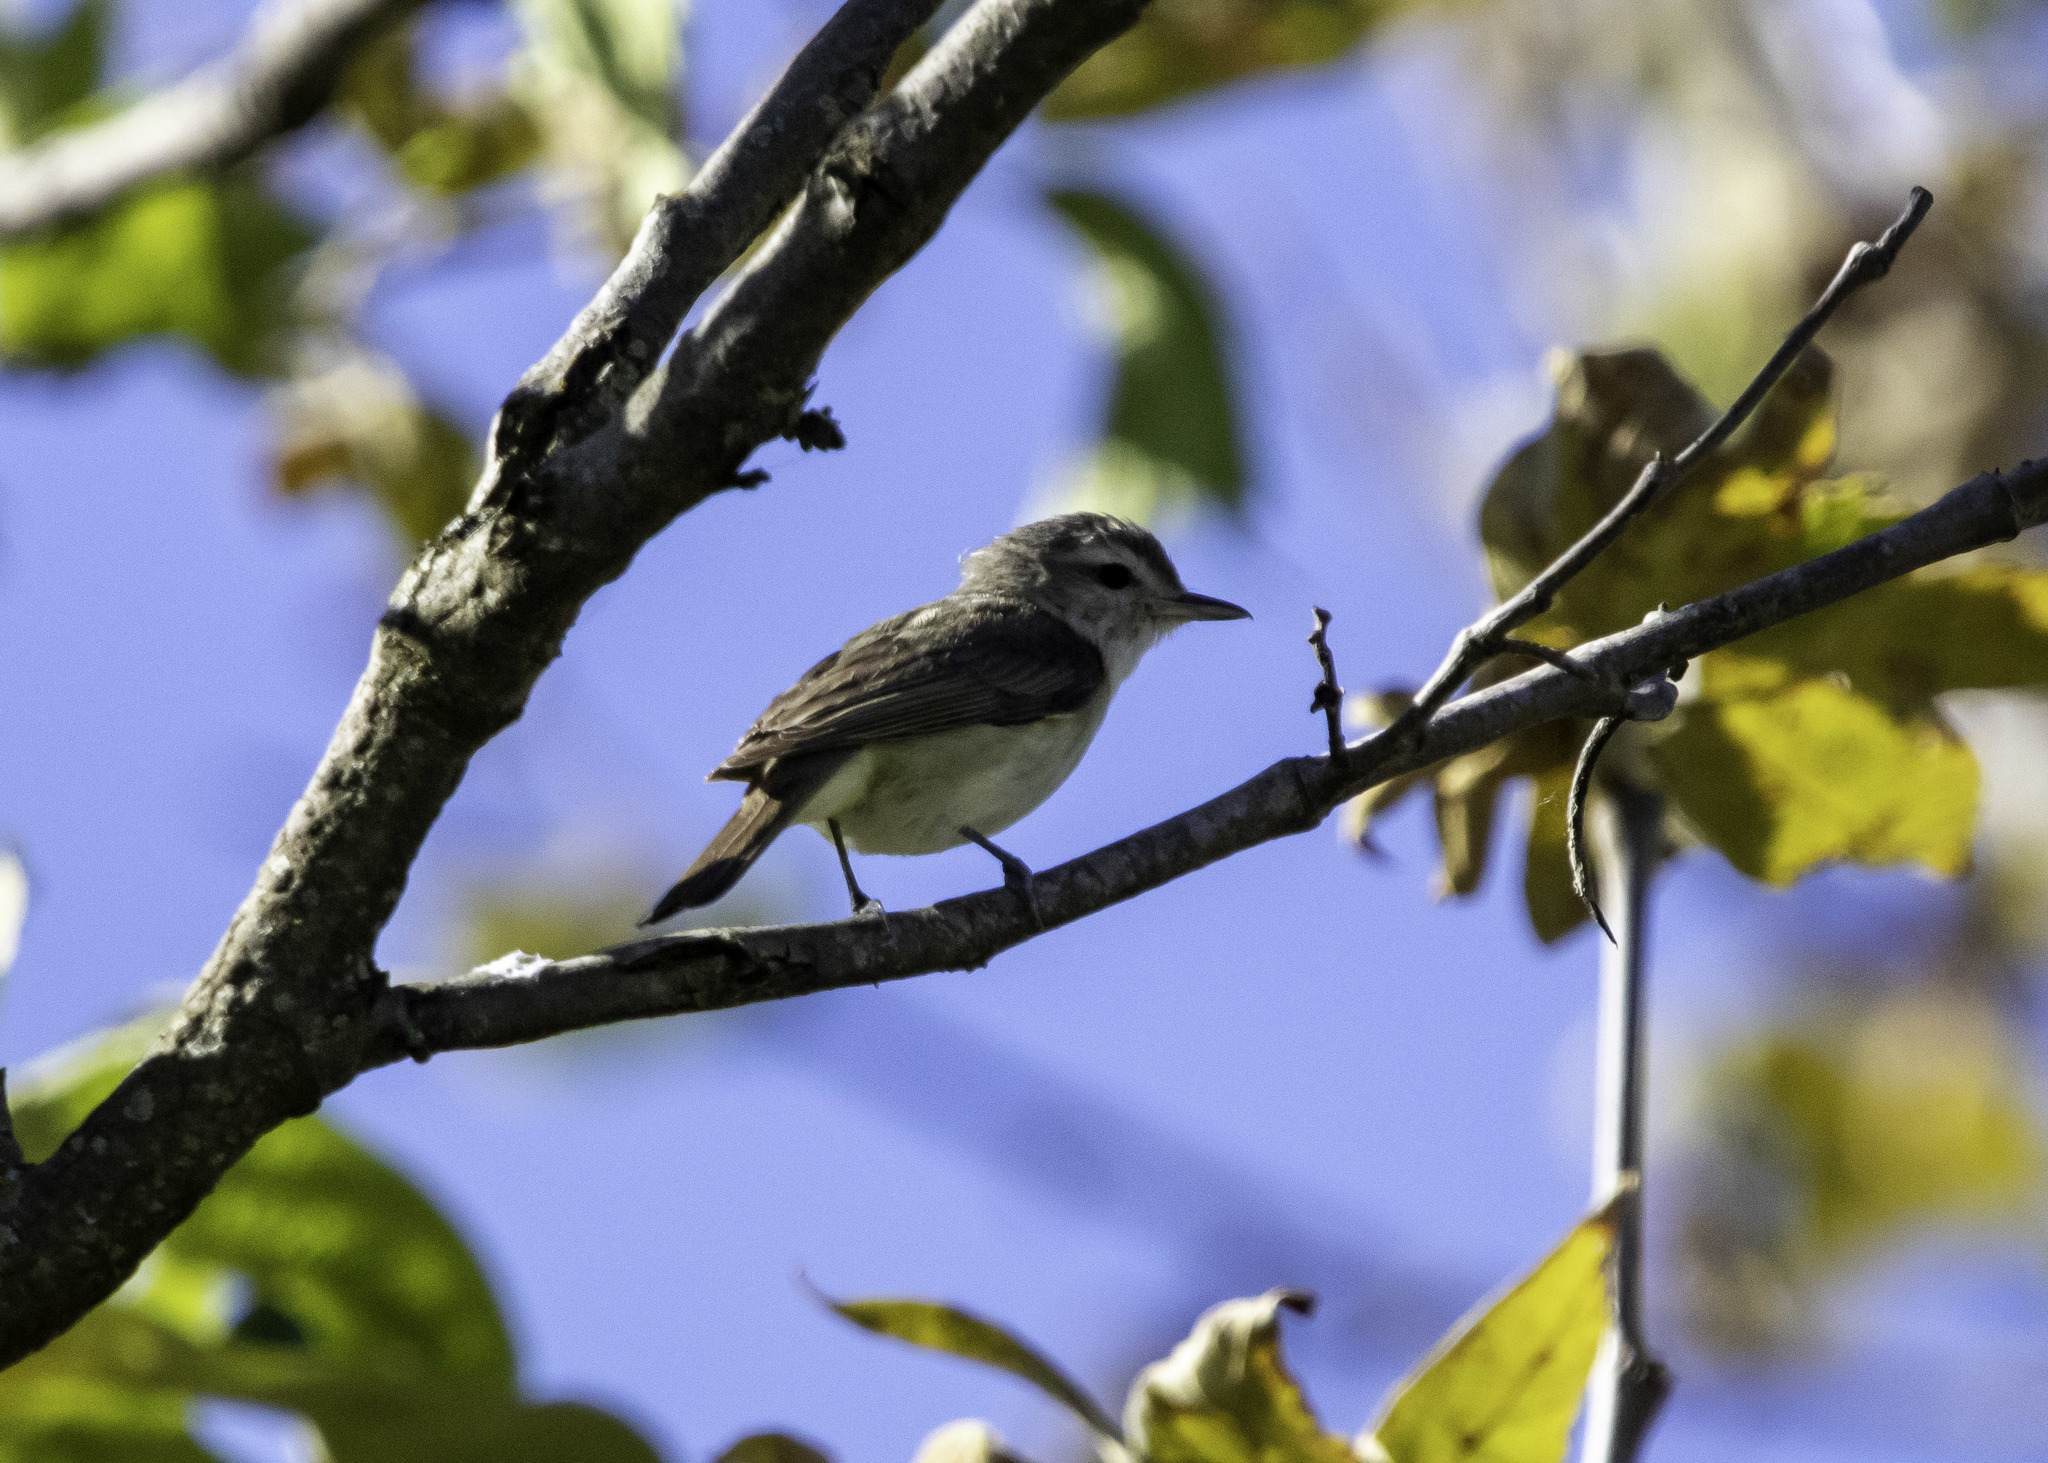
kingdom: Animalia
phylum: Chordata
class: Aves
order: Passeriformes
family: Vireonidae
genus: Vireo
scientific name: Vireo gilvus
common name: Warbling vireo
